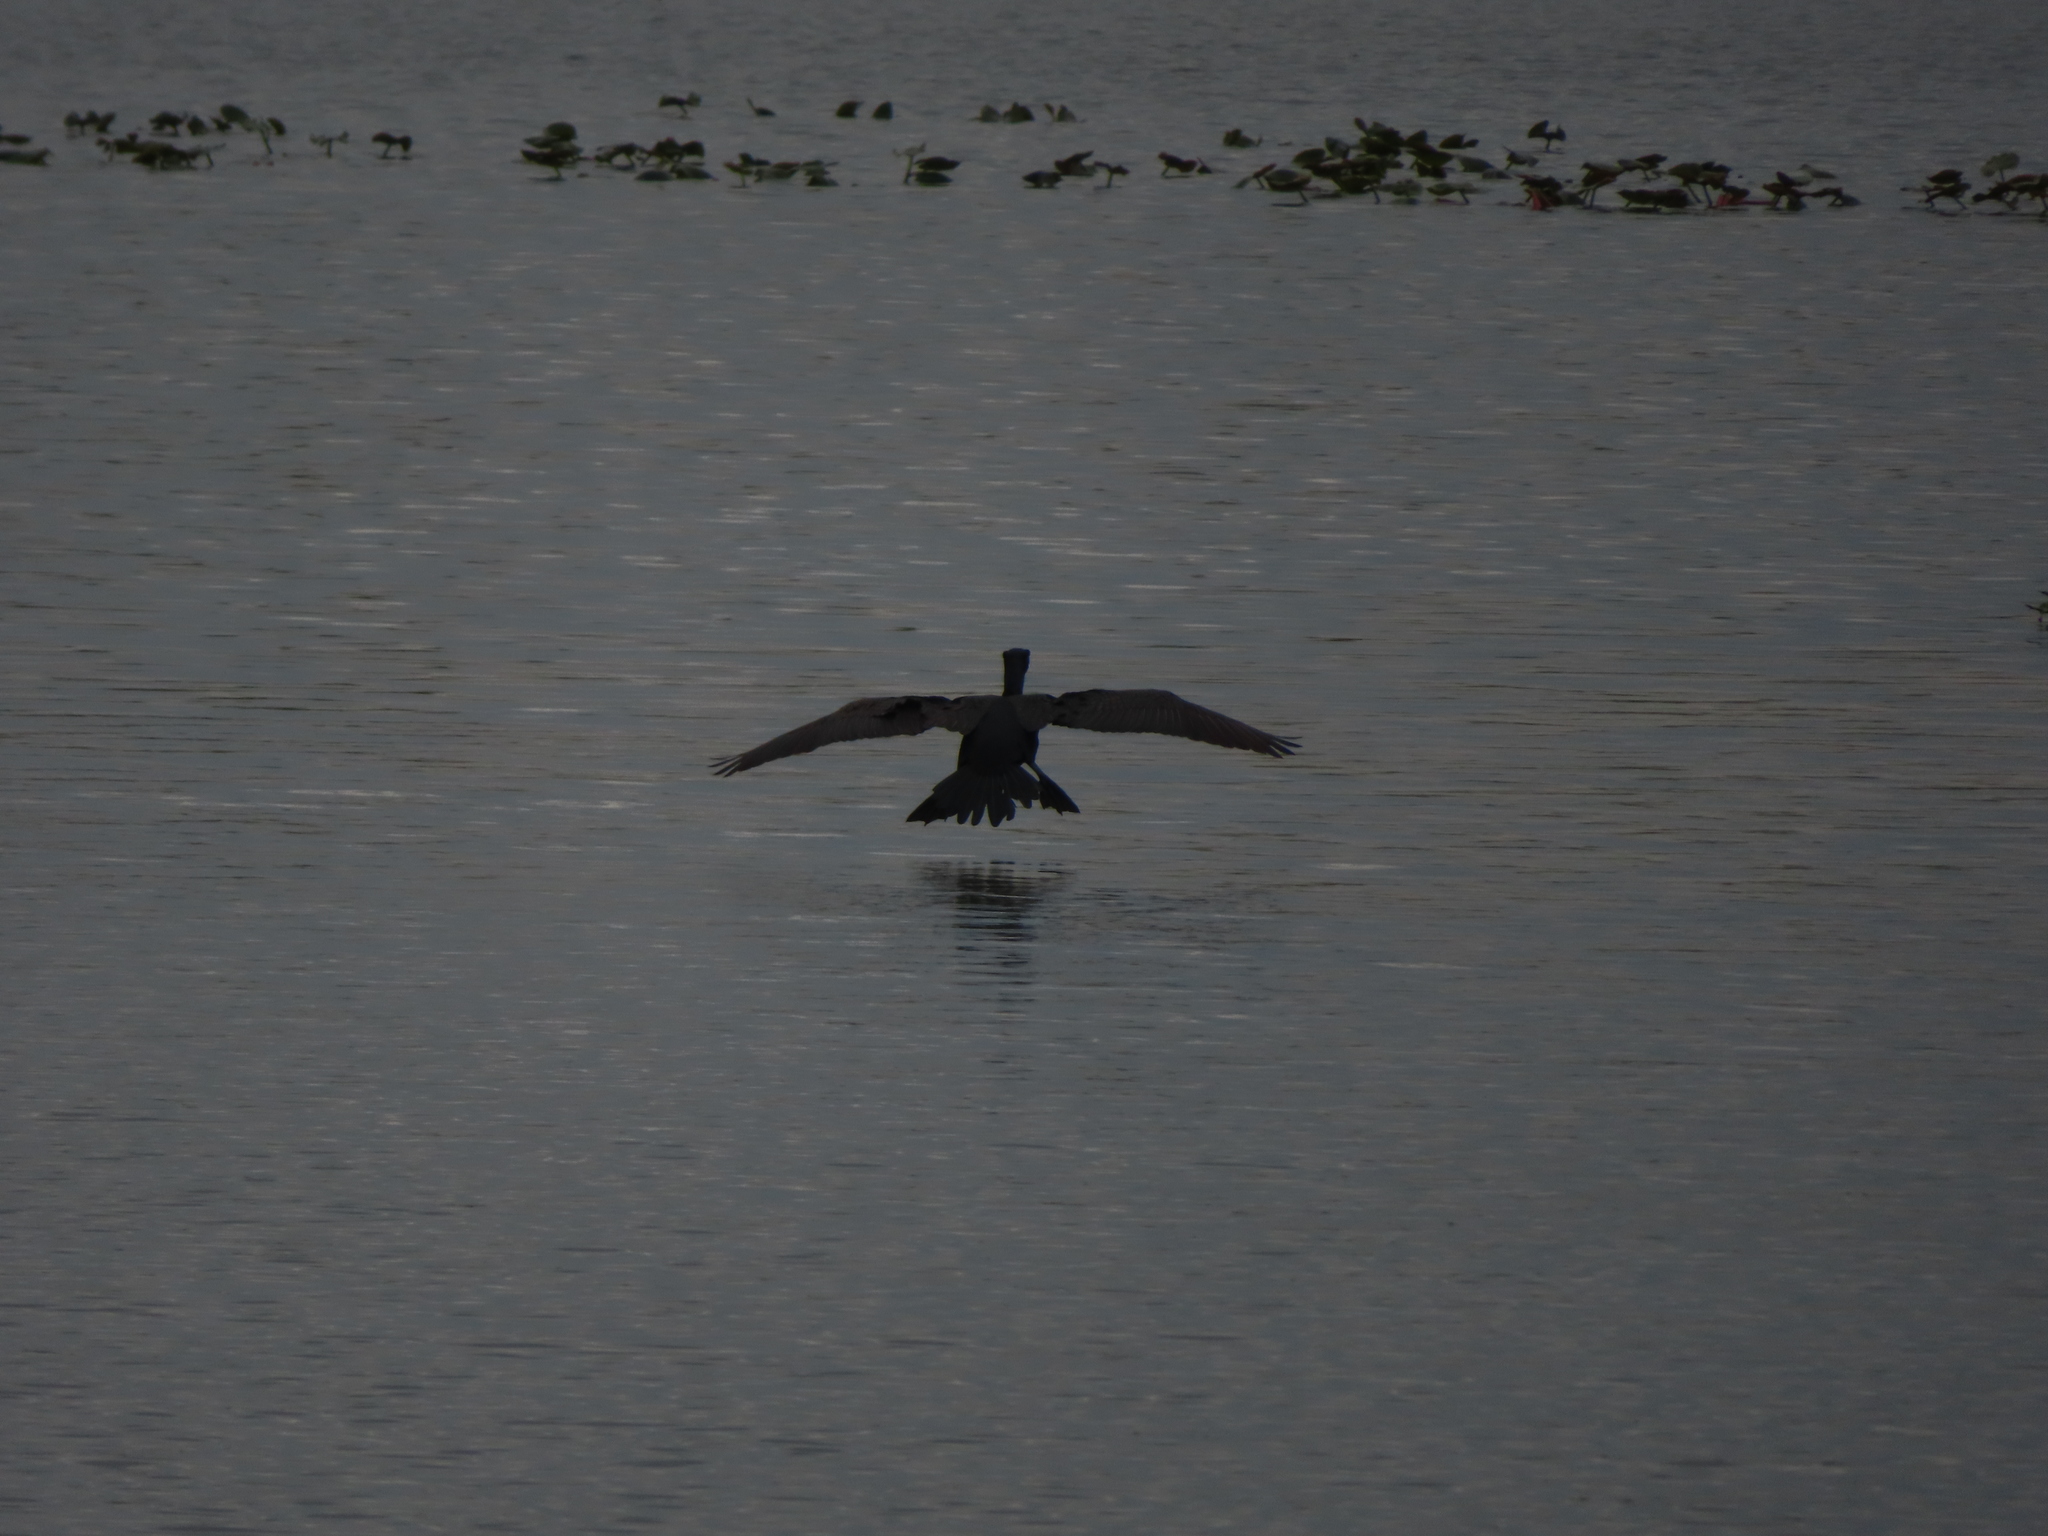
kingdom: Animalia
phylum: Chordata
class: Aves
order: Suliformes
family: Phalacrocoracidae
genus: Phalacrocorax
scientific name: Phalacrocorax auritus
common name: Double-crested cormorant
